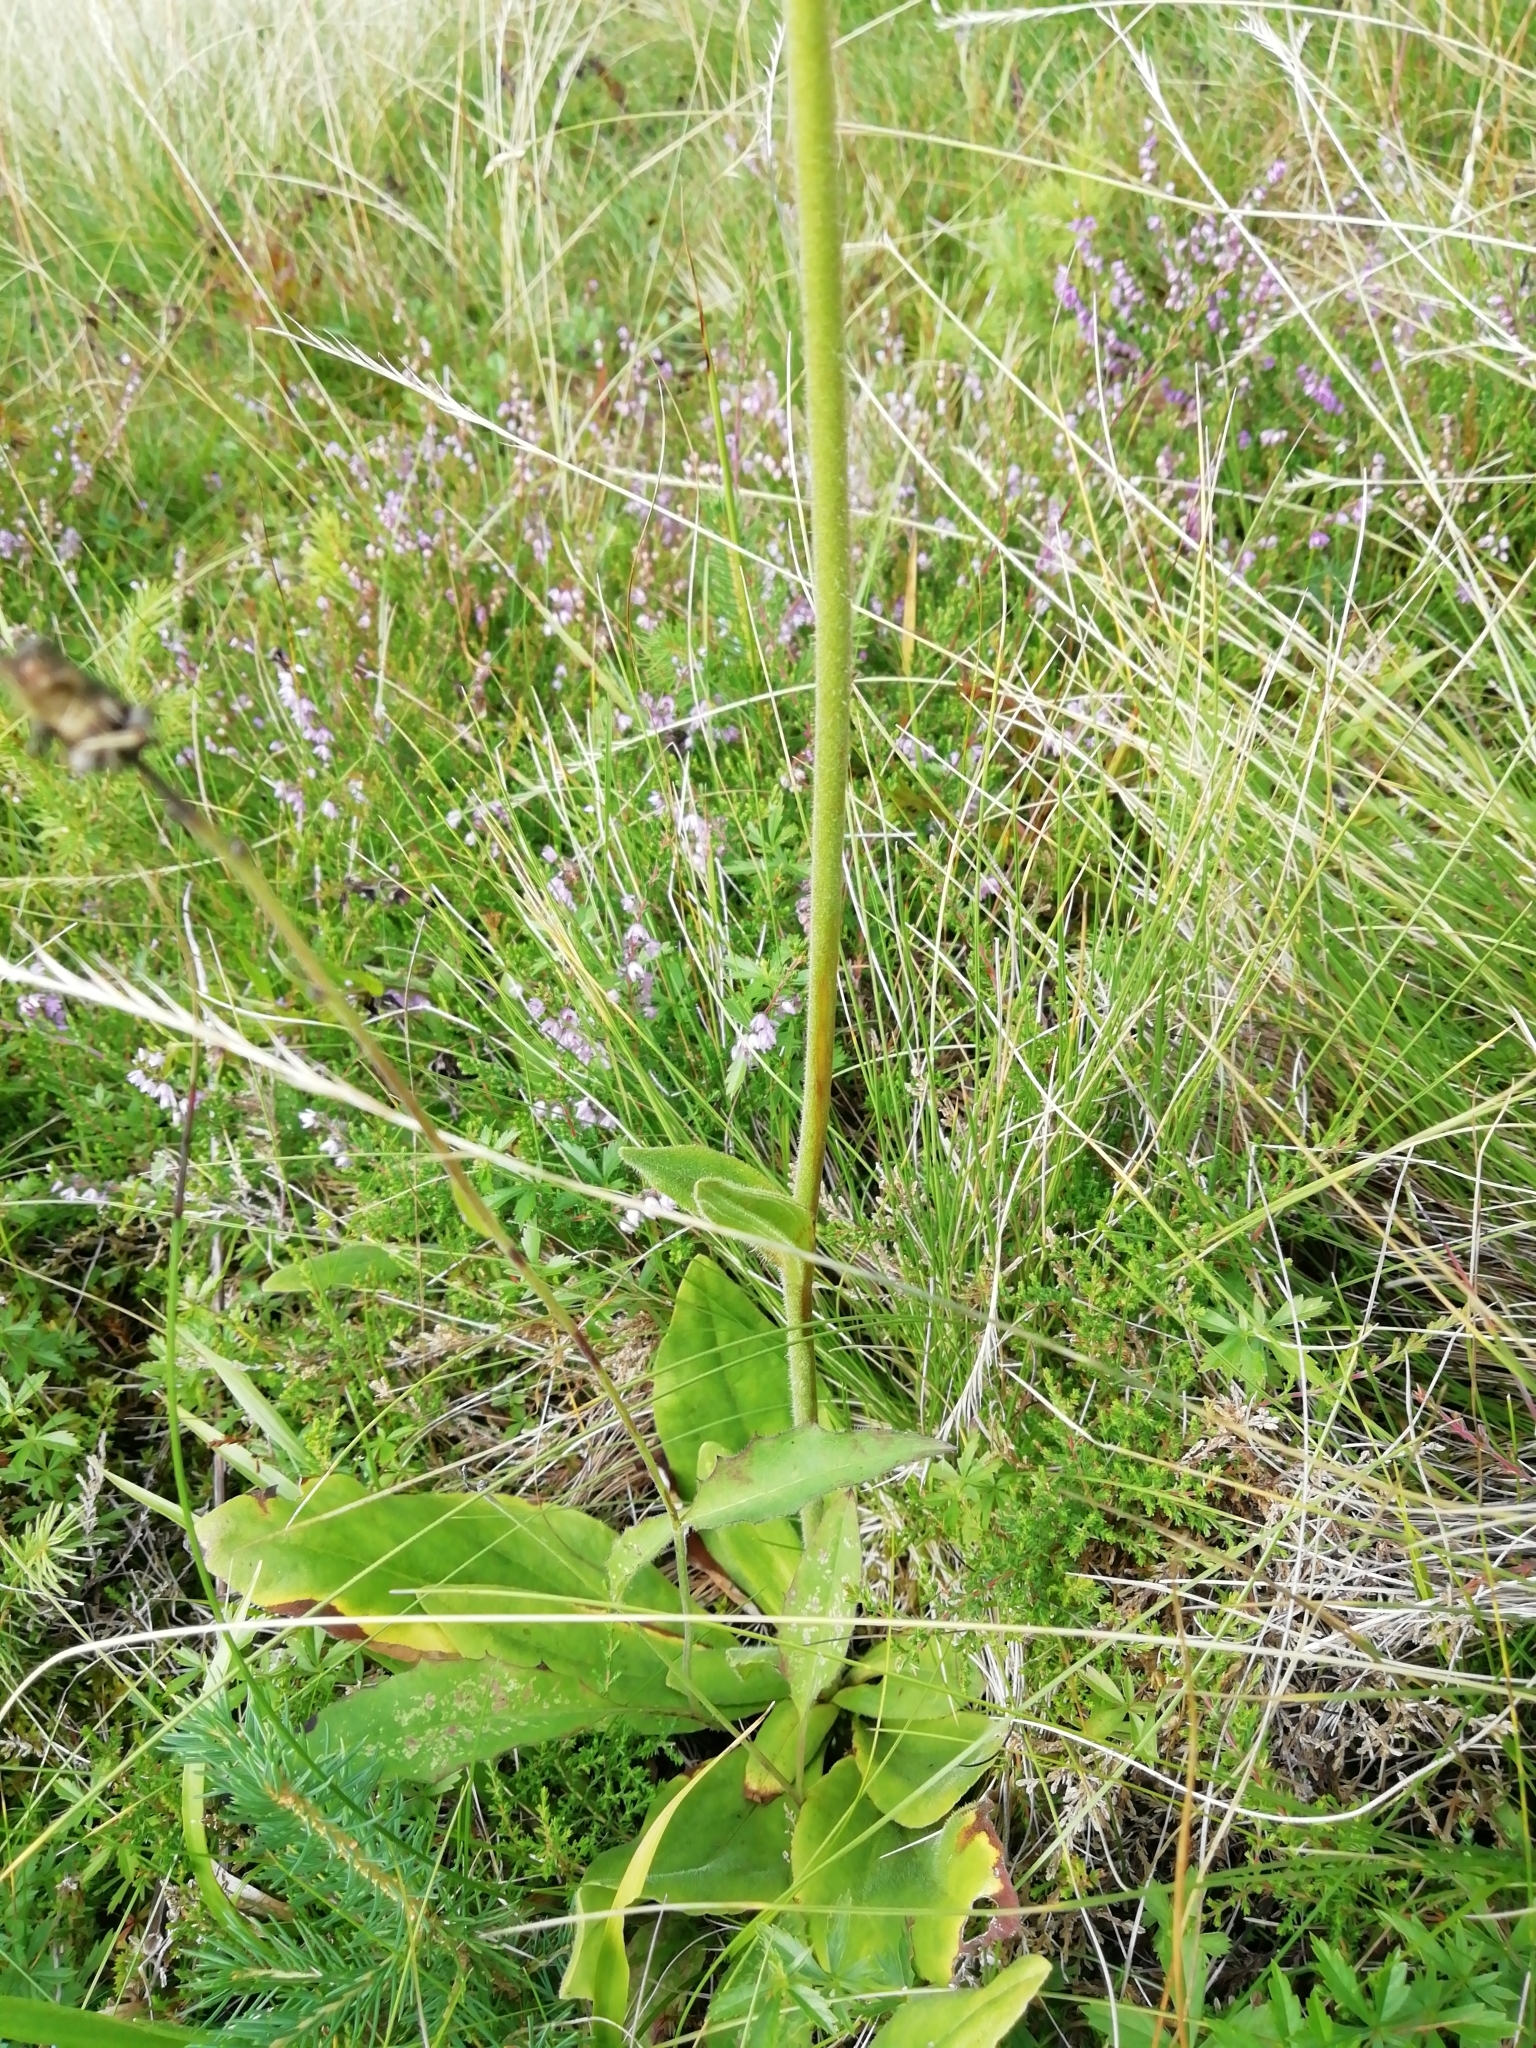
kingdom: Plantae
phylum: Tracheophyta
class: Magnoliopsida
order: Asterales
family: Asteraceae
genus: Arnica
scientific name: Arnica montana
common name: Leopard's bane
